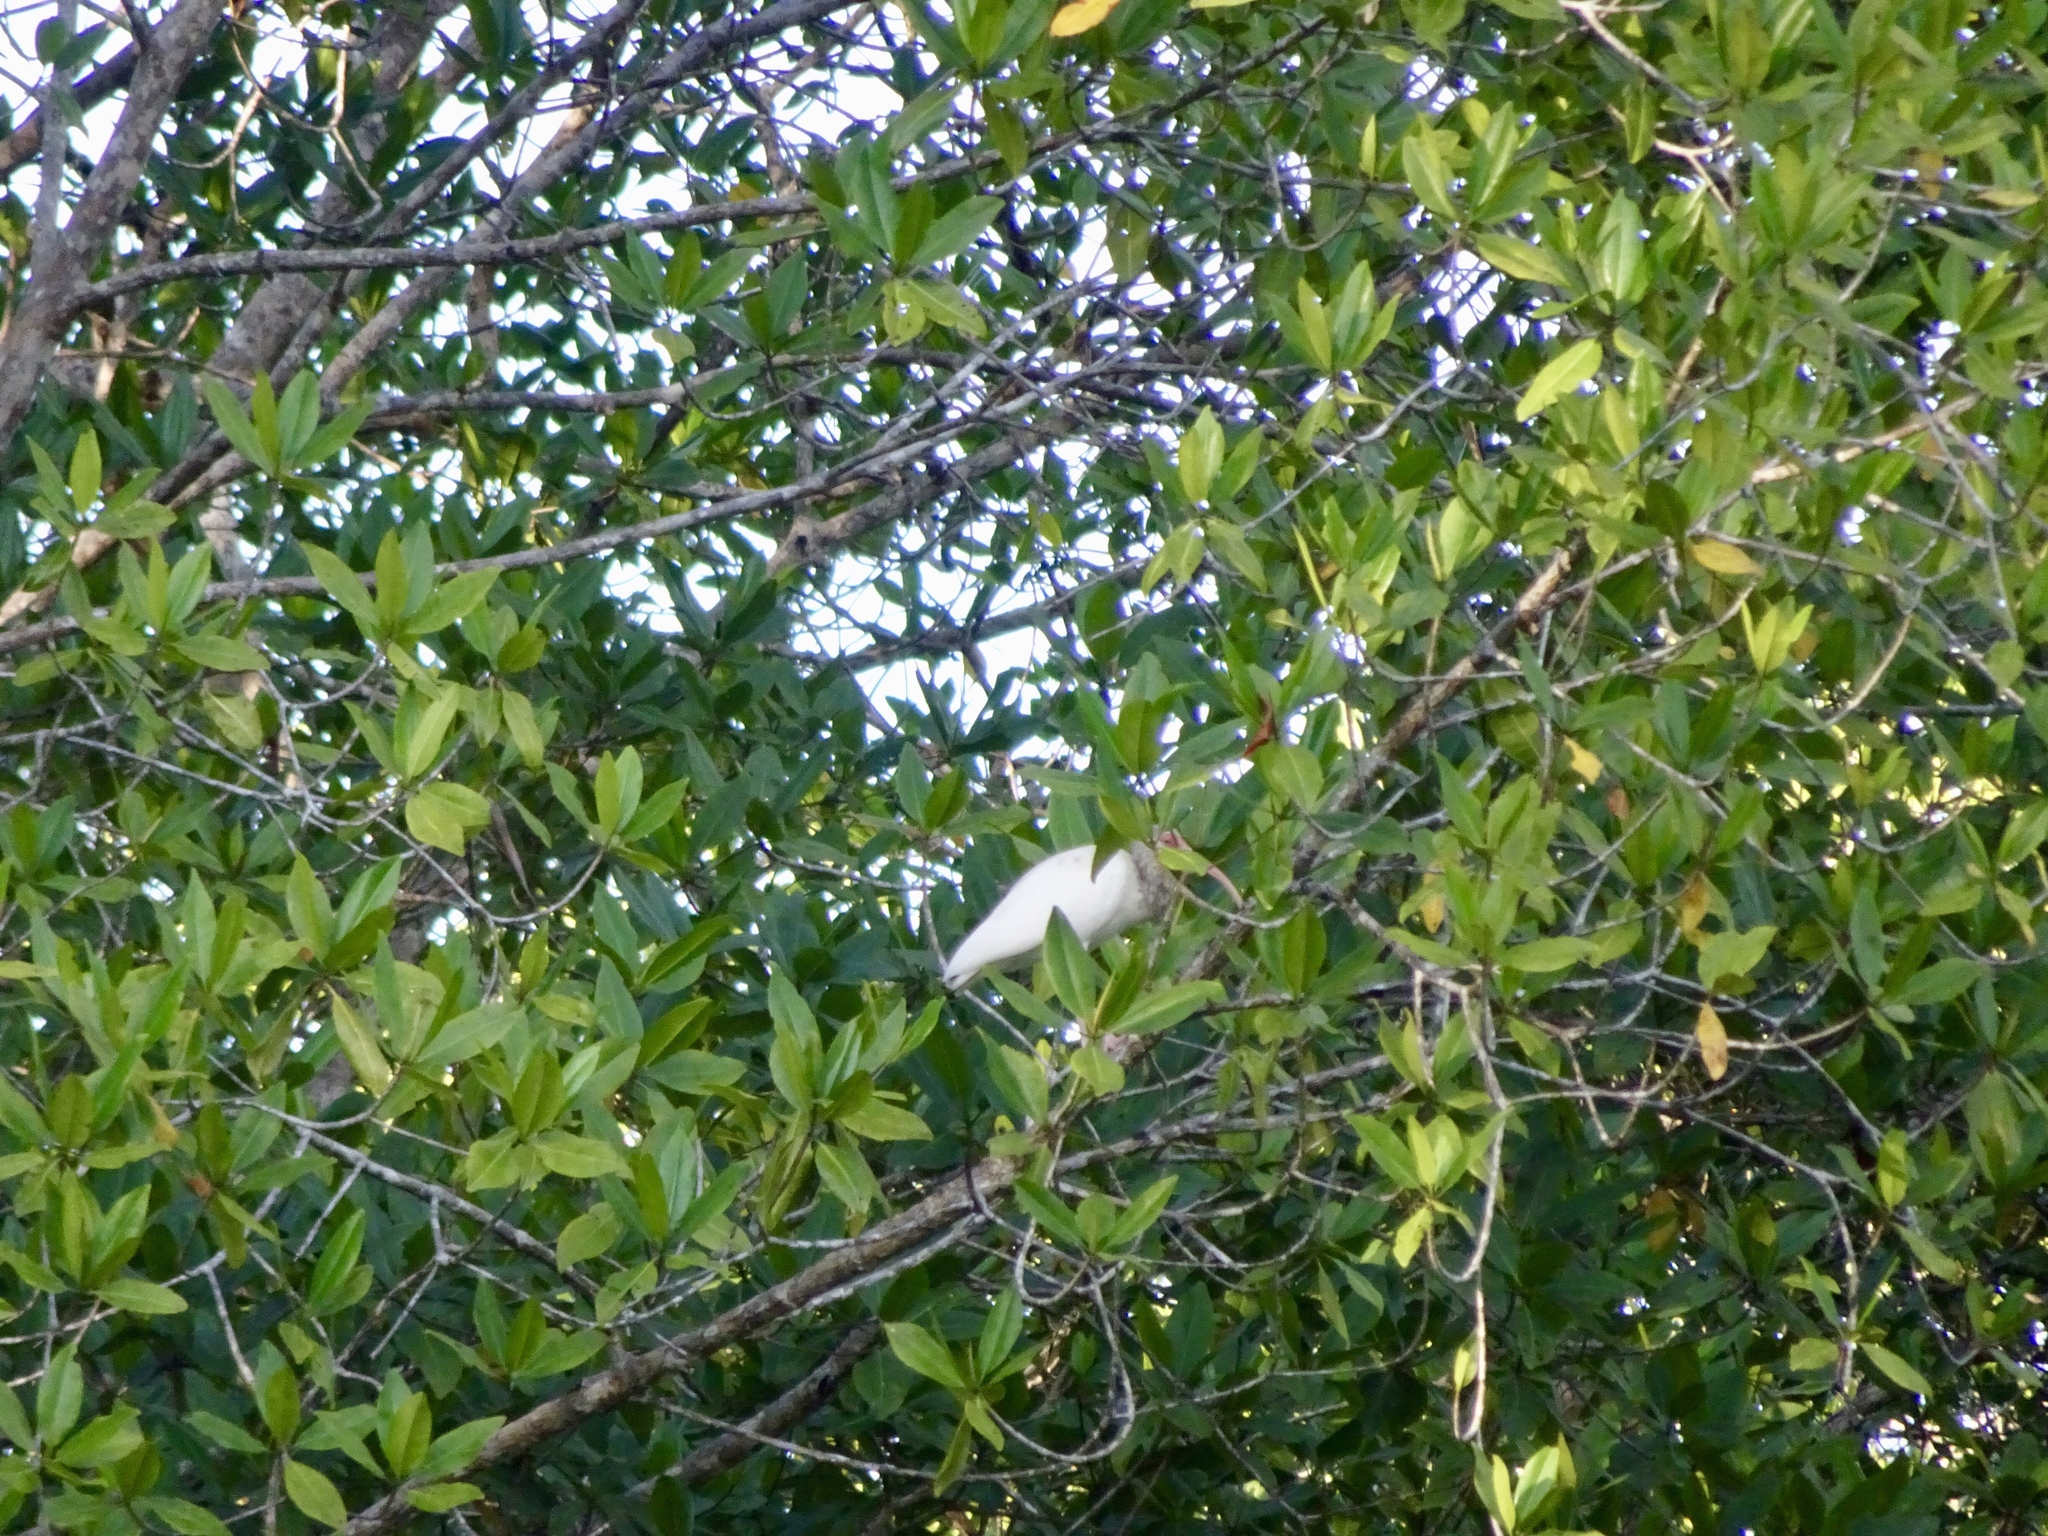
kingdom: Animalia
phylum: Chordata
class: Aves
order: Pelecaniformes
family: Threskiornithidae
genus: Eudocimus
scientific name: Eudocimus albus
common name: White ibis
